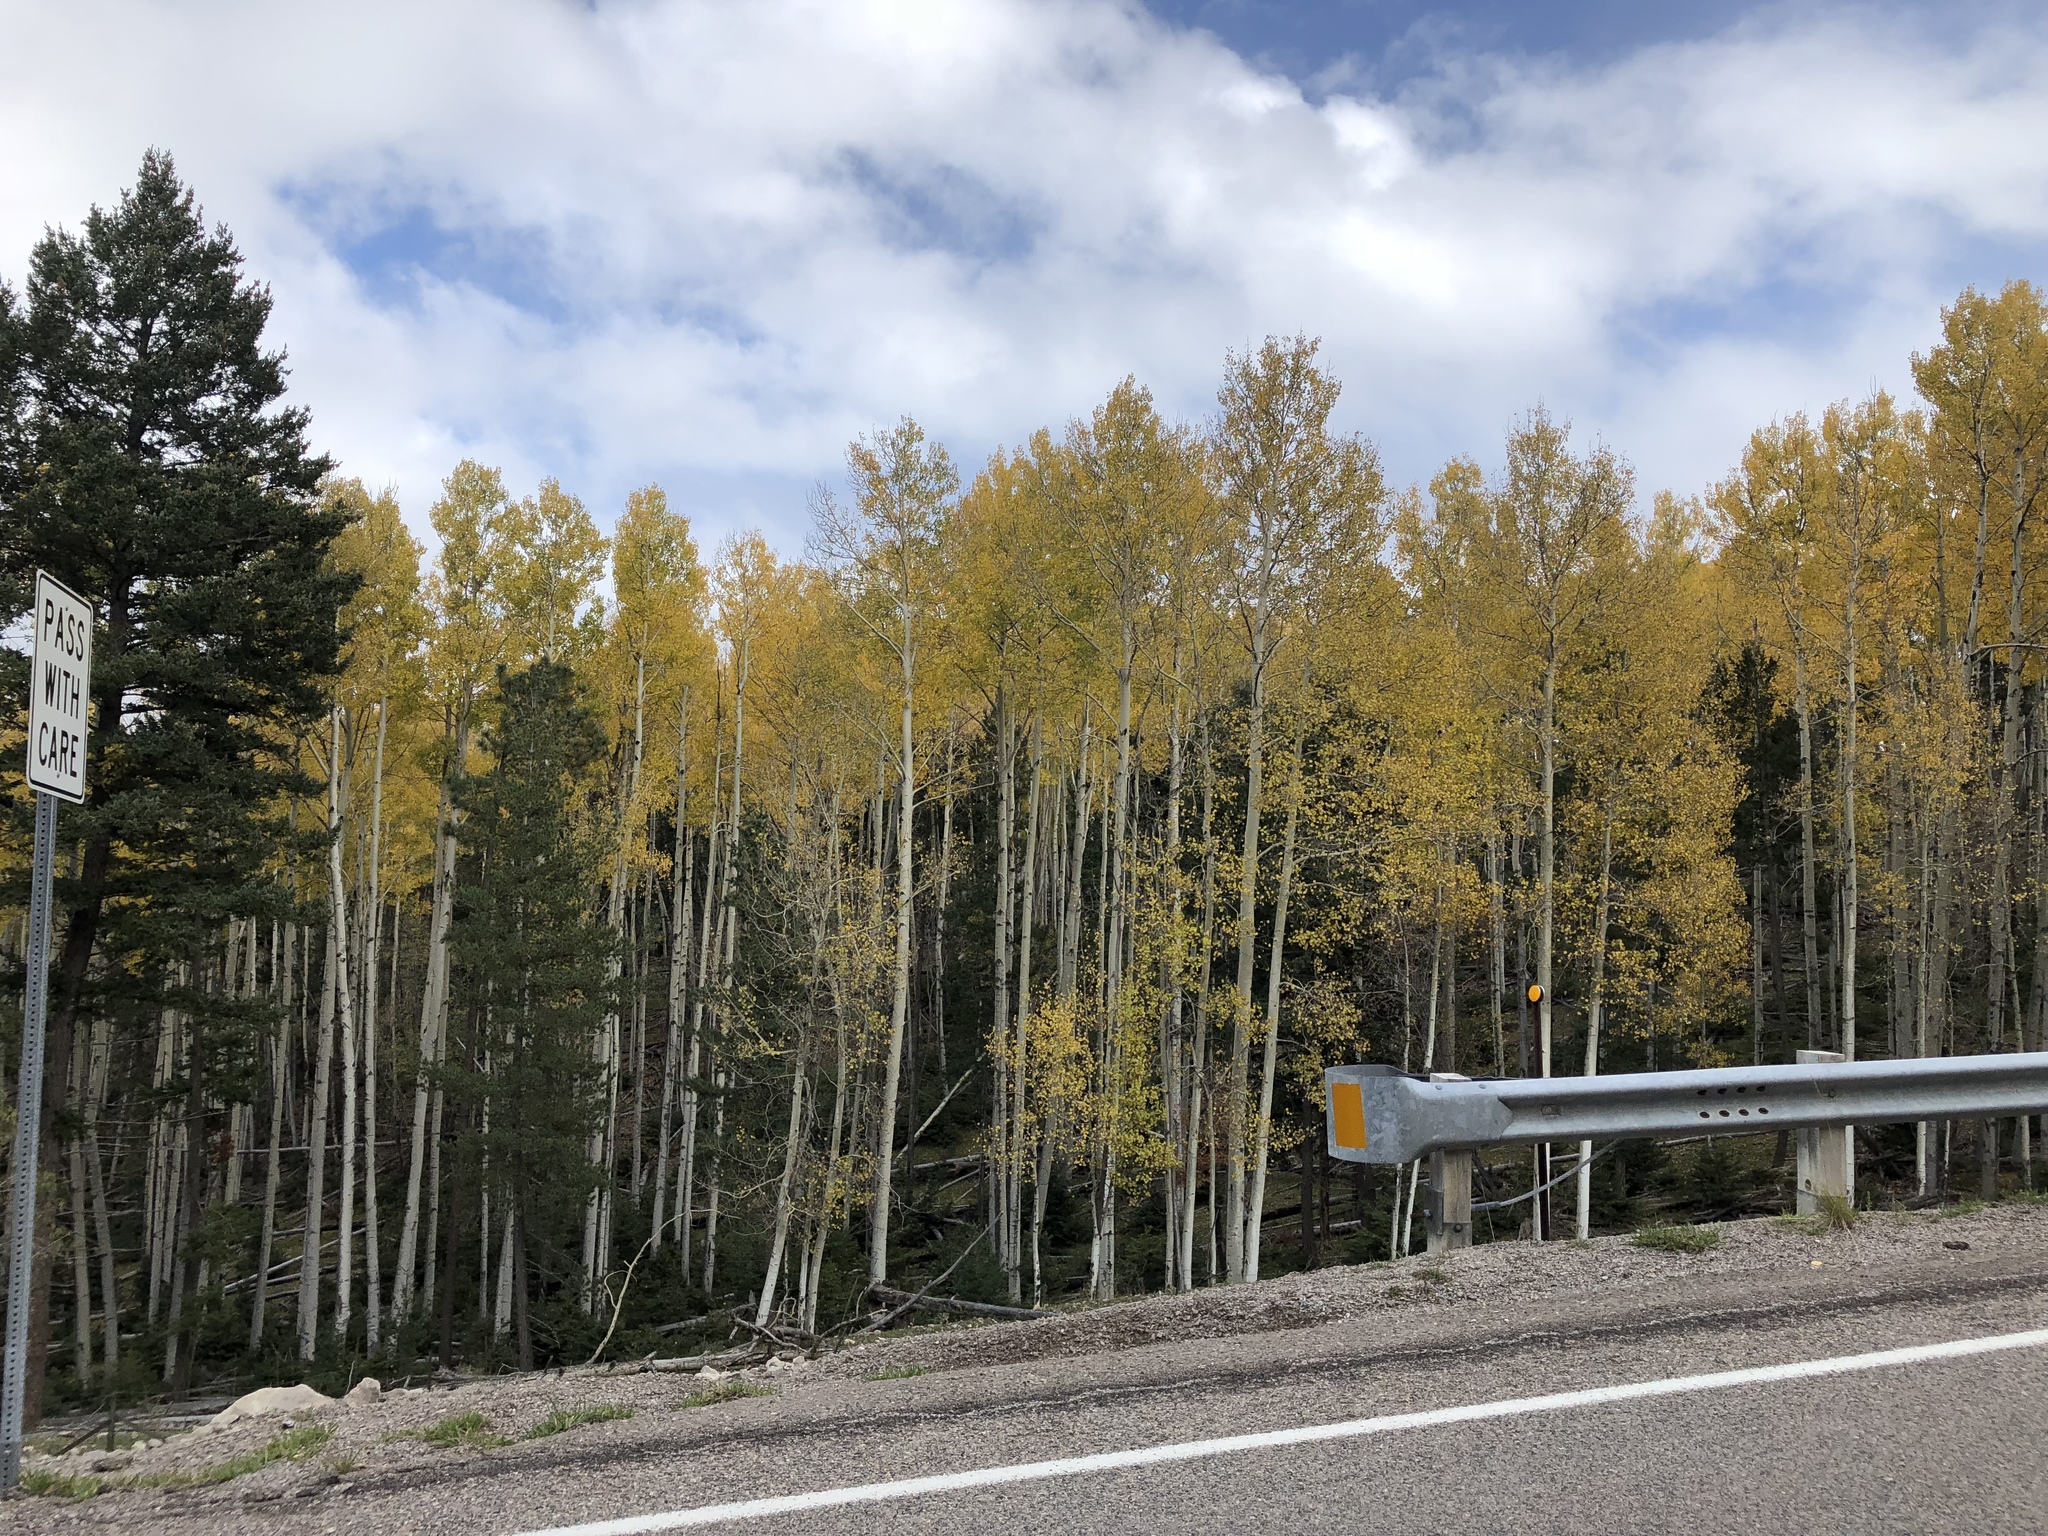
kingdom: Plantae
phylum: Tracheophyta
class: Magnoliopsida
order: Malpighiales
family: Salicaceae
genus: Populus
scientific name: Populus tremuloides
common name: Quaking aspen
